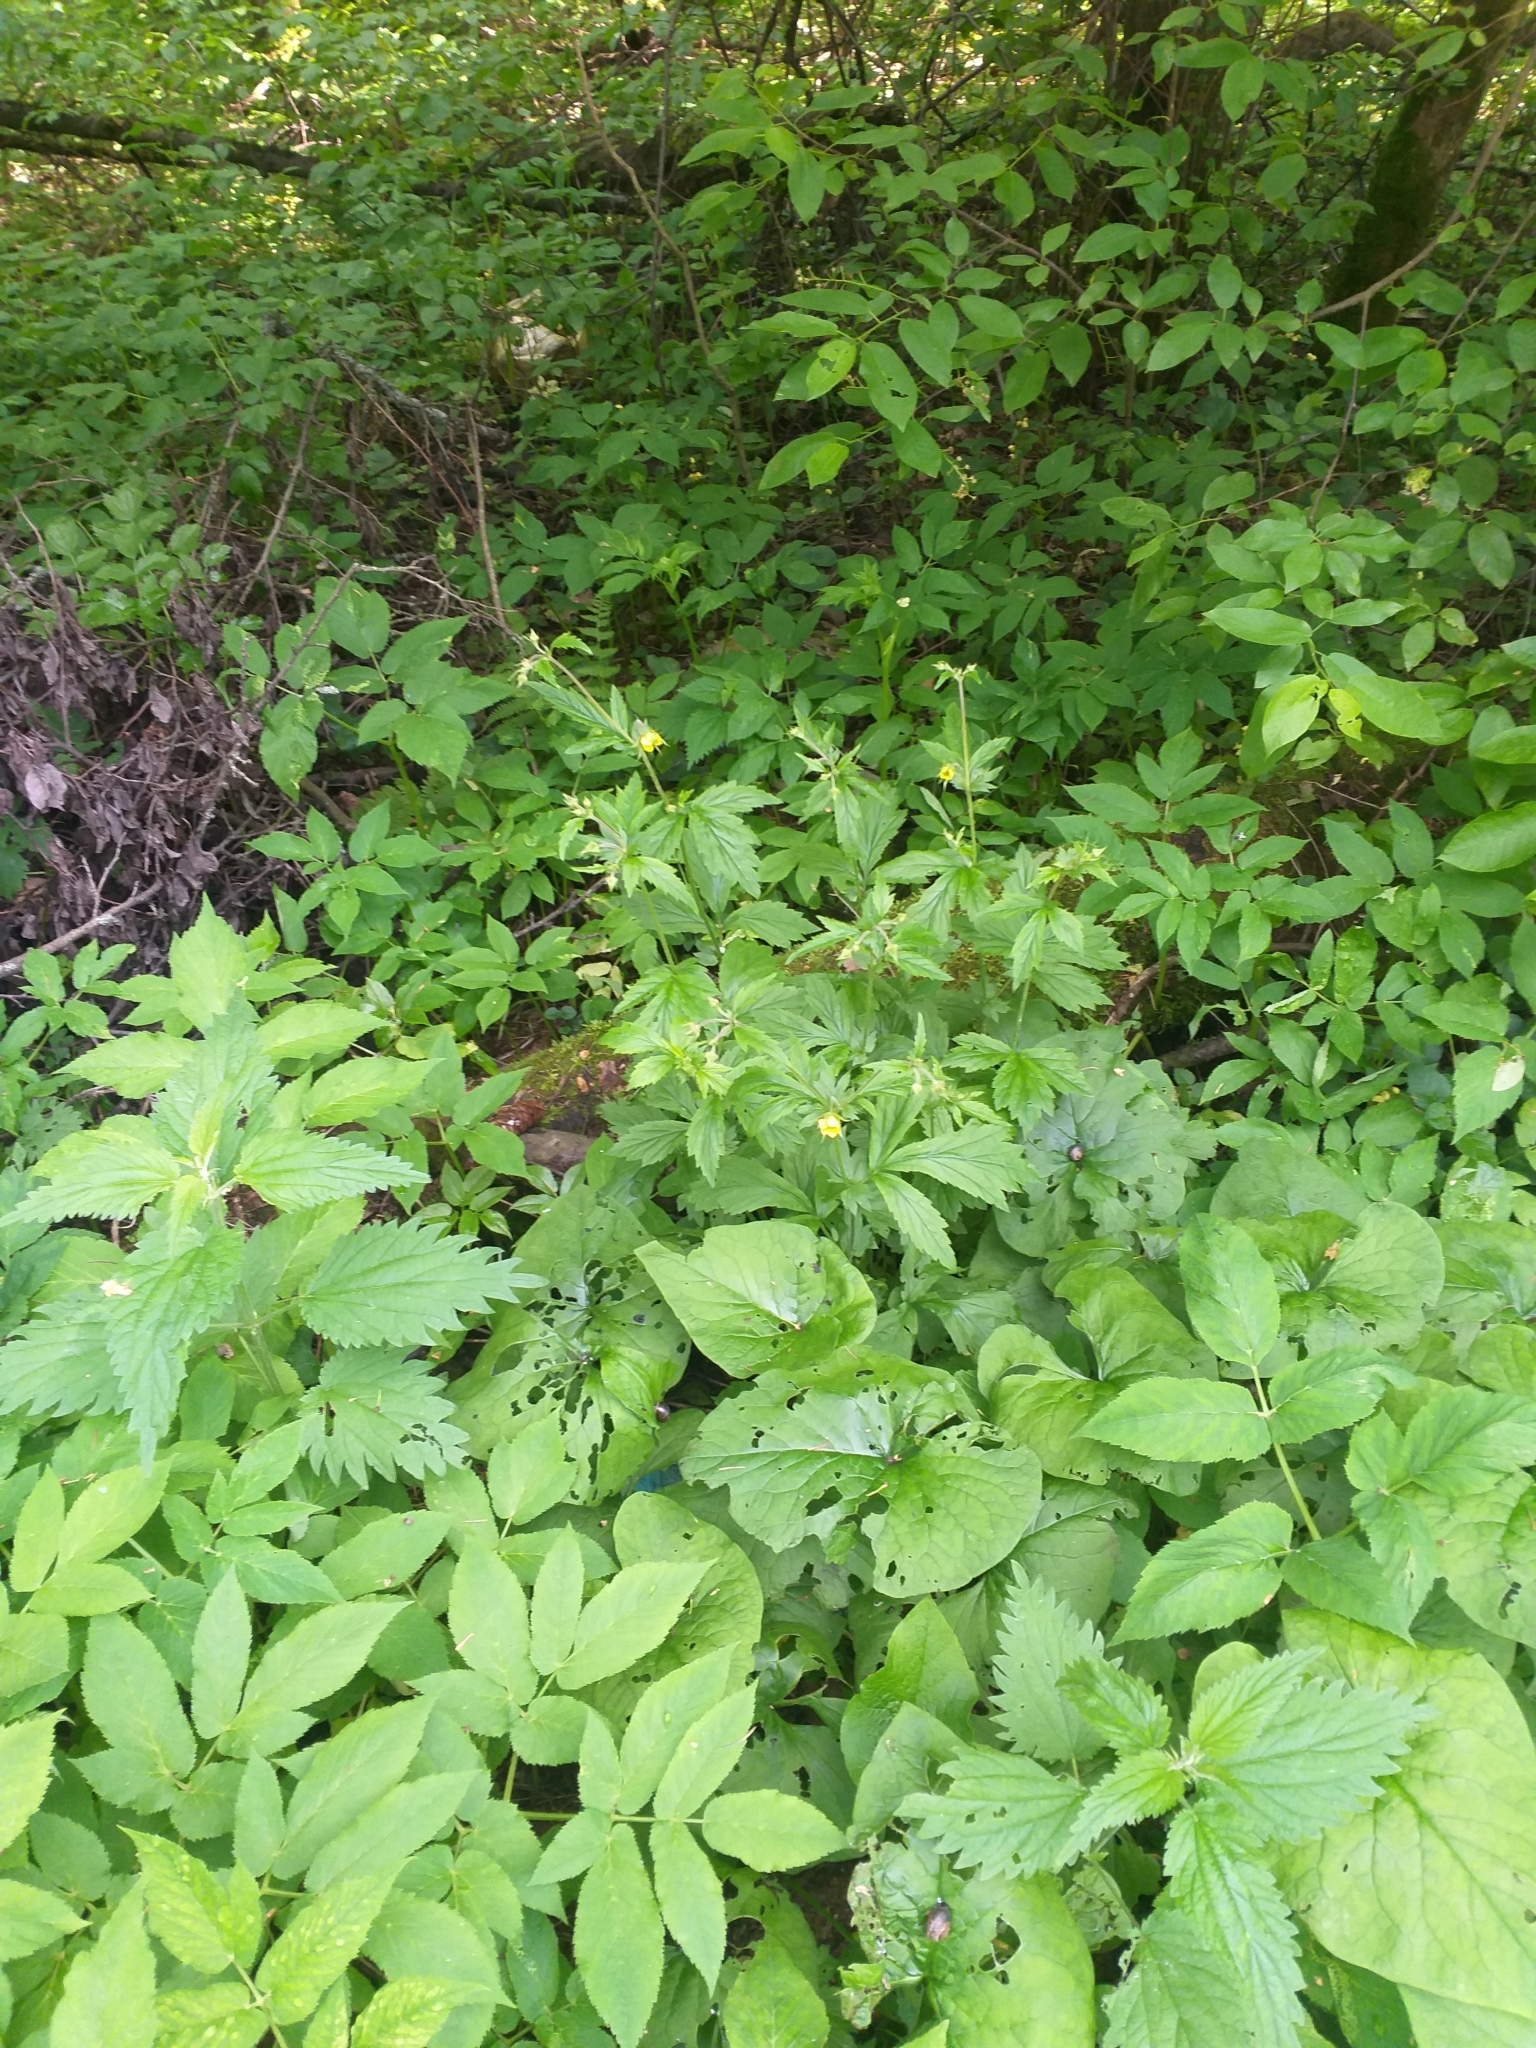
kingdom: Plantae
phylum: Tracheophyta
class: Magnoliopsida
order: Rosales
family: Rosaceae
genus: Geum
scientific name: Geum intermedium
